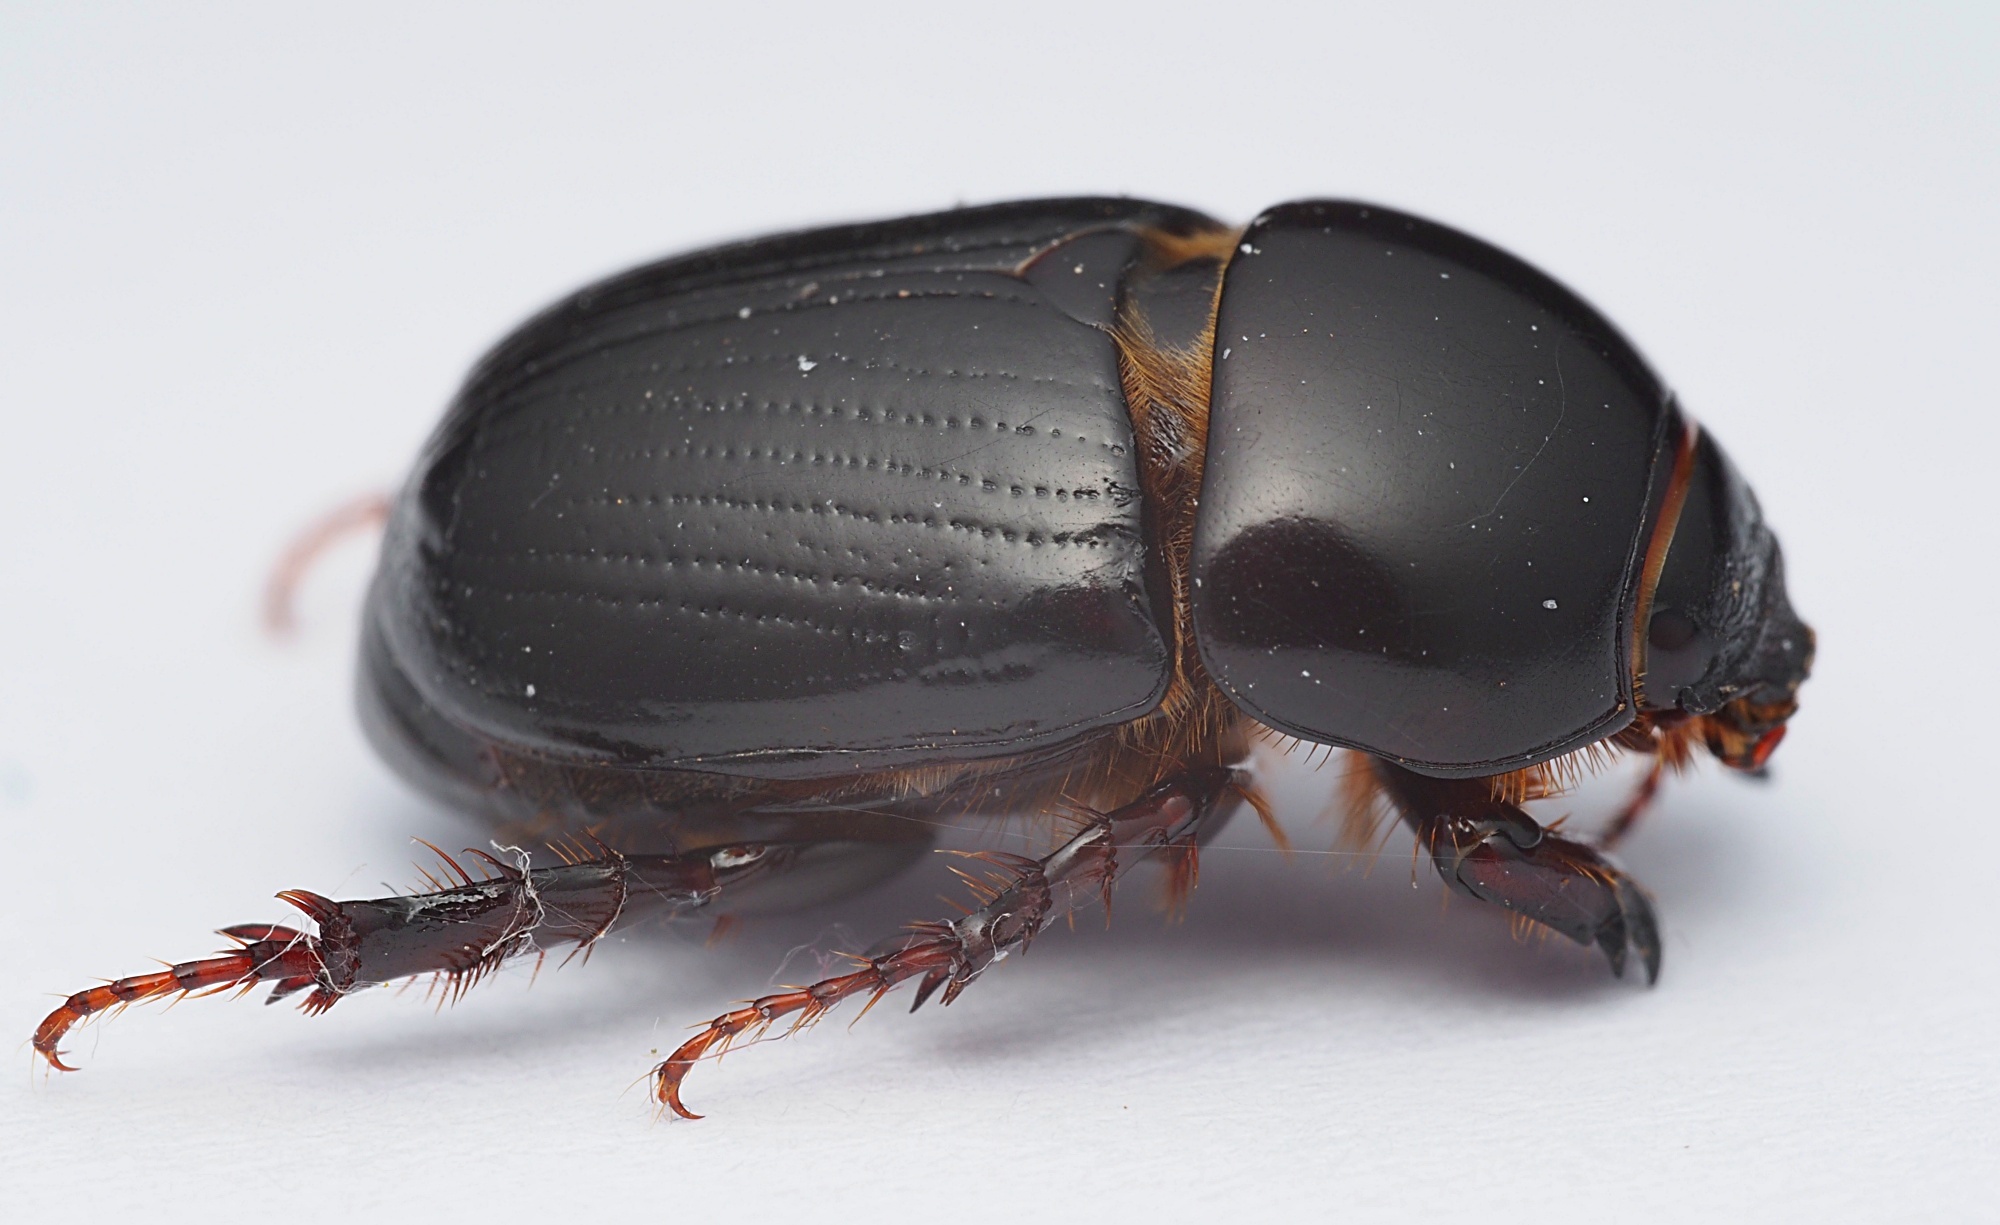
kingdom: Animalia
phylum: Arthropoda
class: Insecta
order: Coleoptera
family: Scarabaeidae
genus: Heteronychus
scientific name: Heteronychus arator
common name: African black beetle
